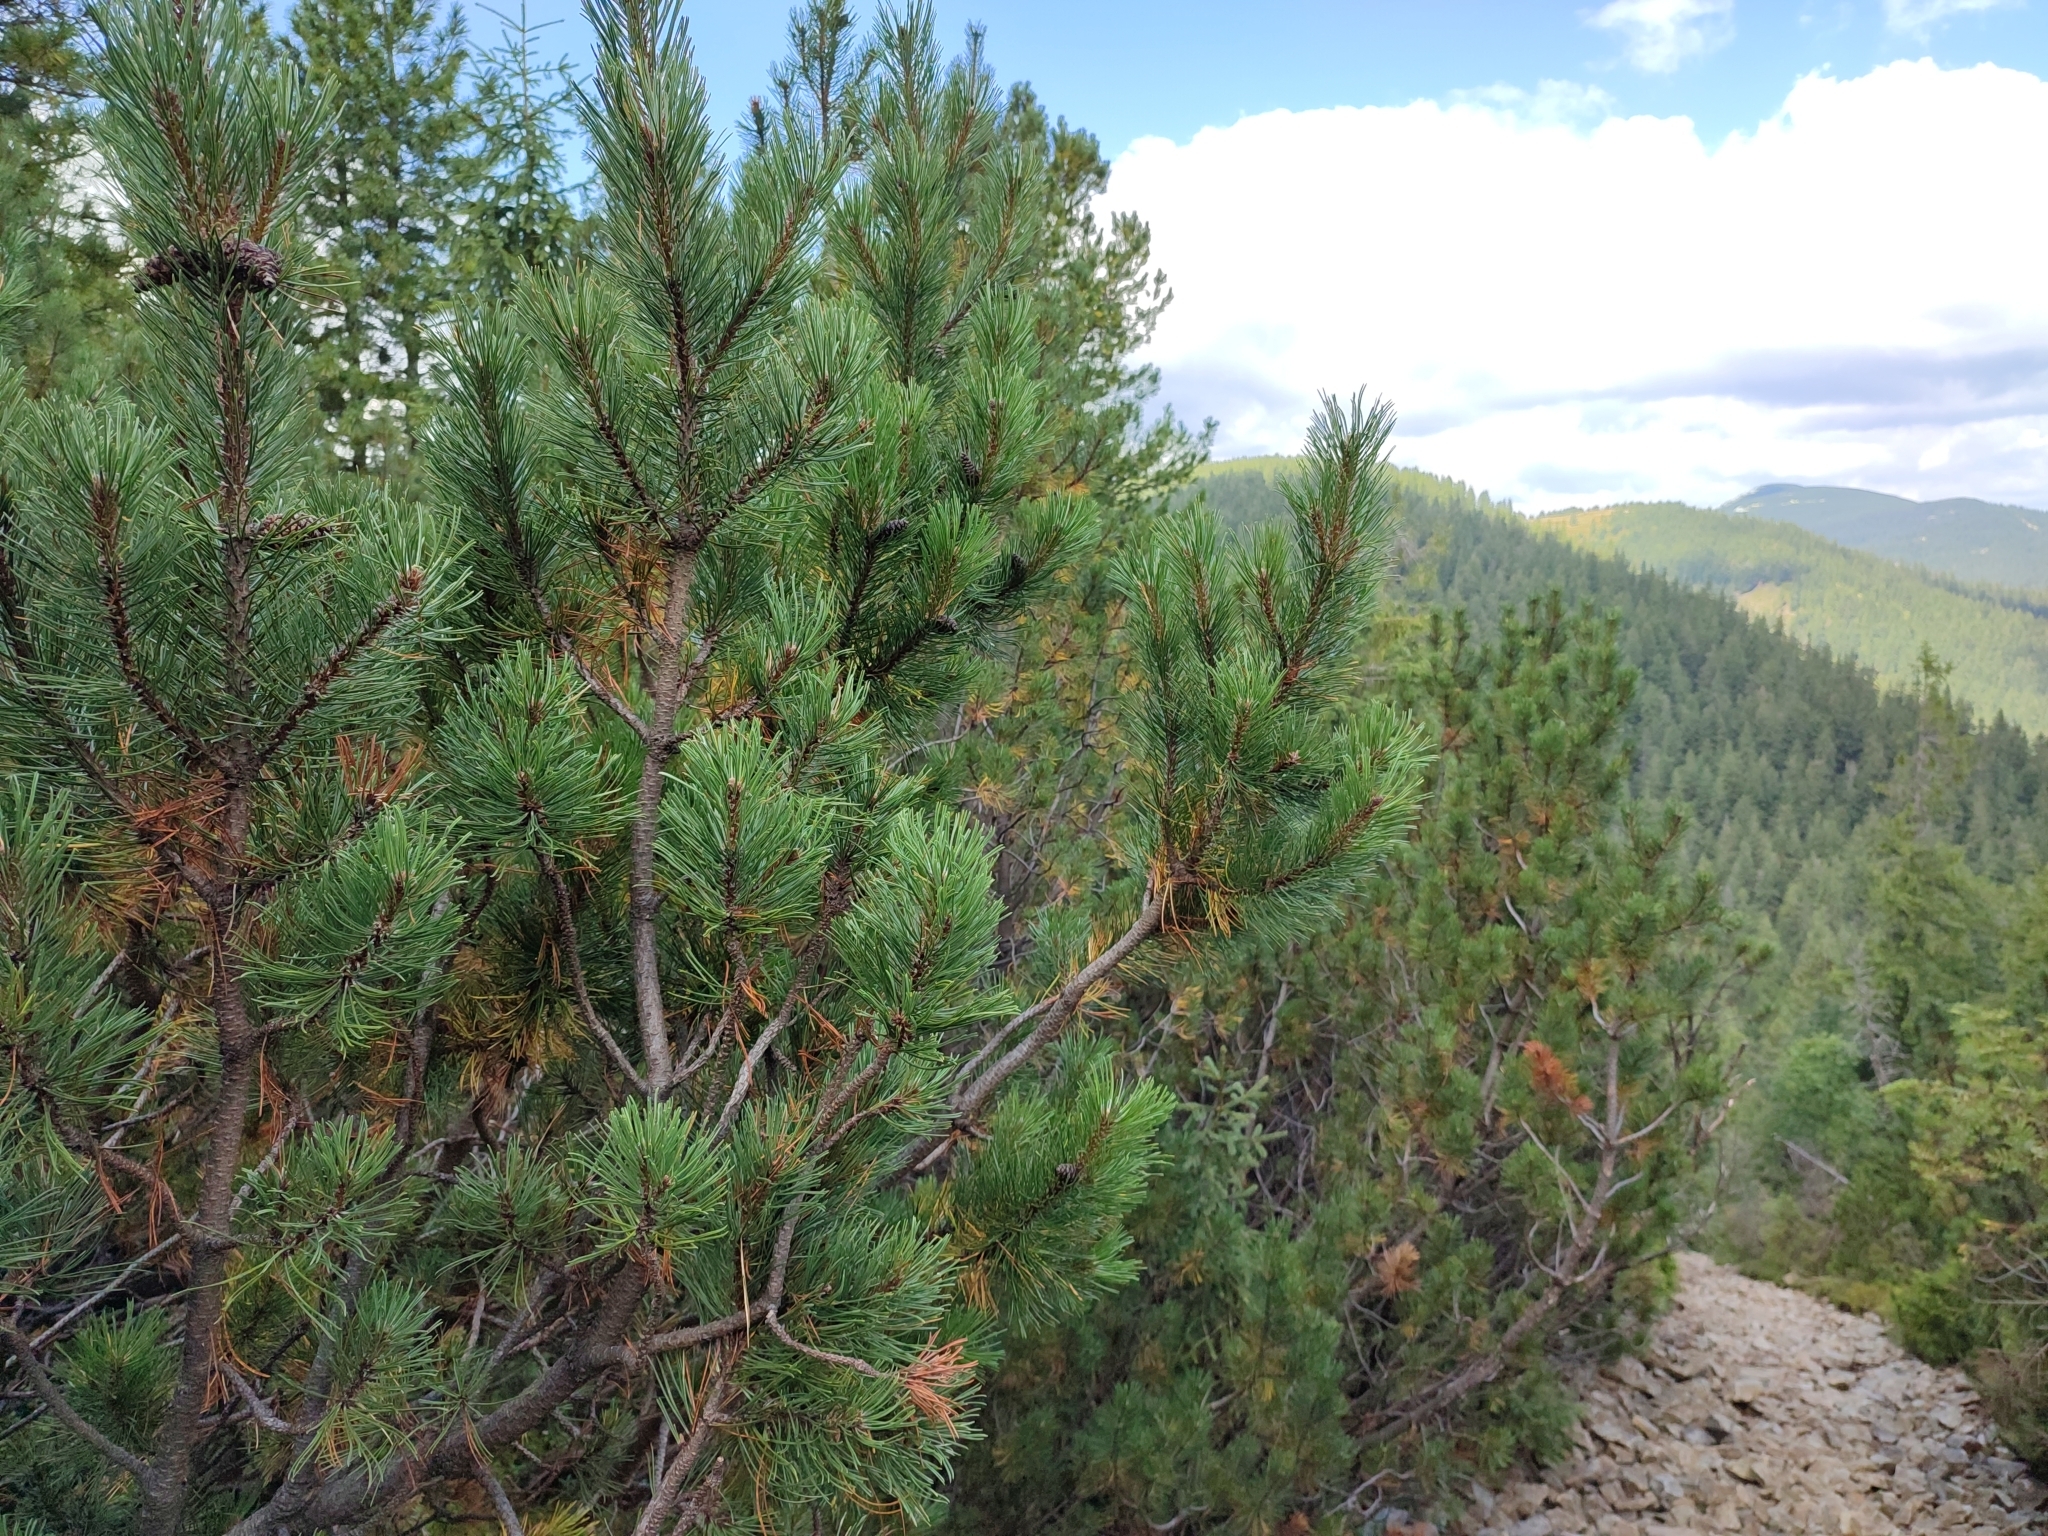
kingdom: Plantae
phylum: Tracheophyta
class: Pinopsida
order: Pinales
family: Pinaceae
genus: Pinus
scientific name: Pinus mugo
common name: Mugo pine
